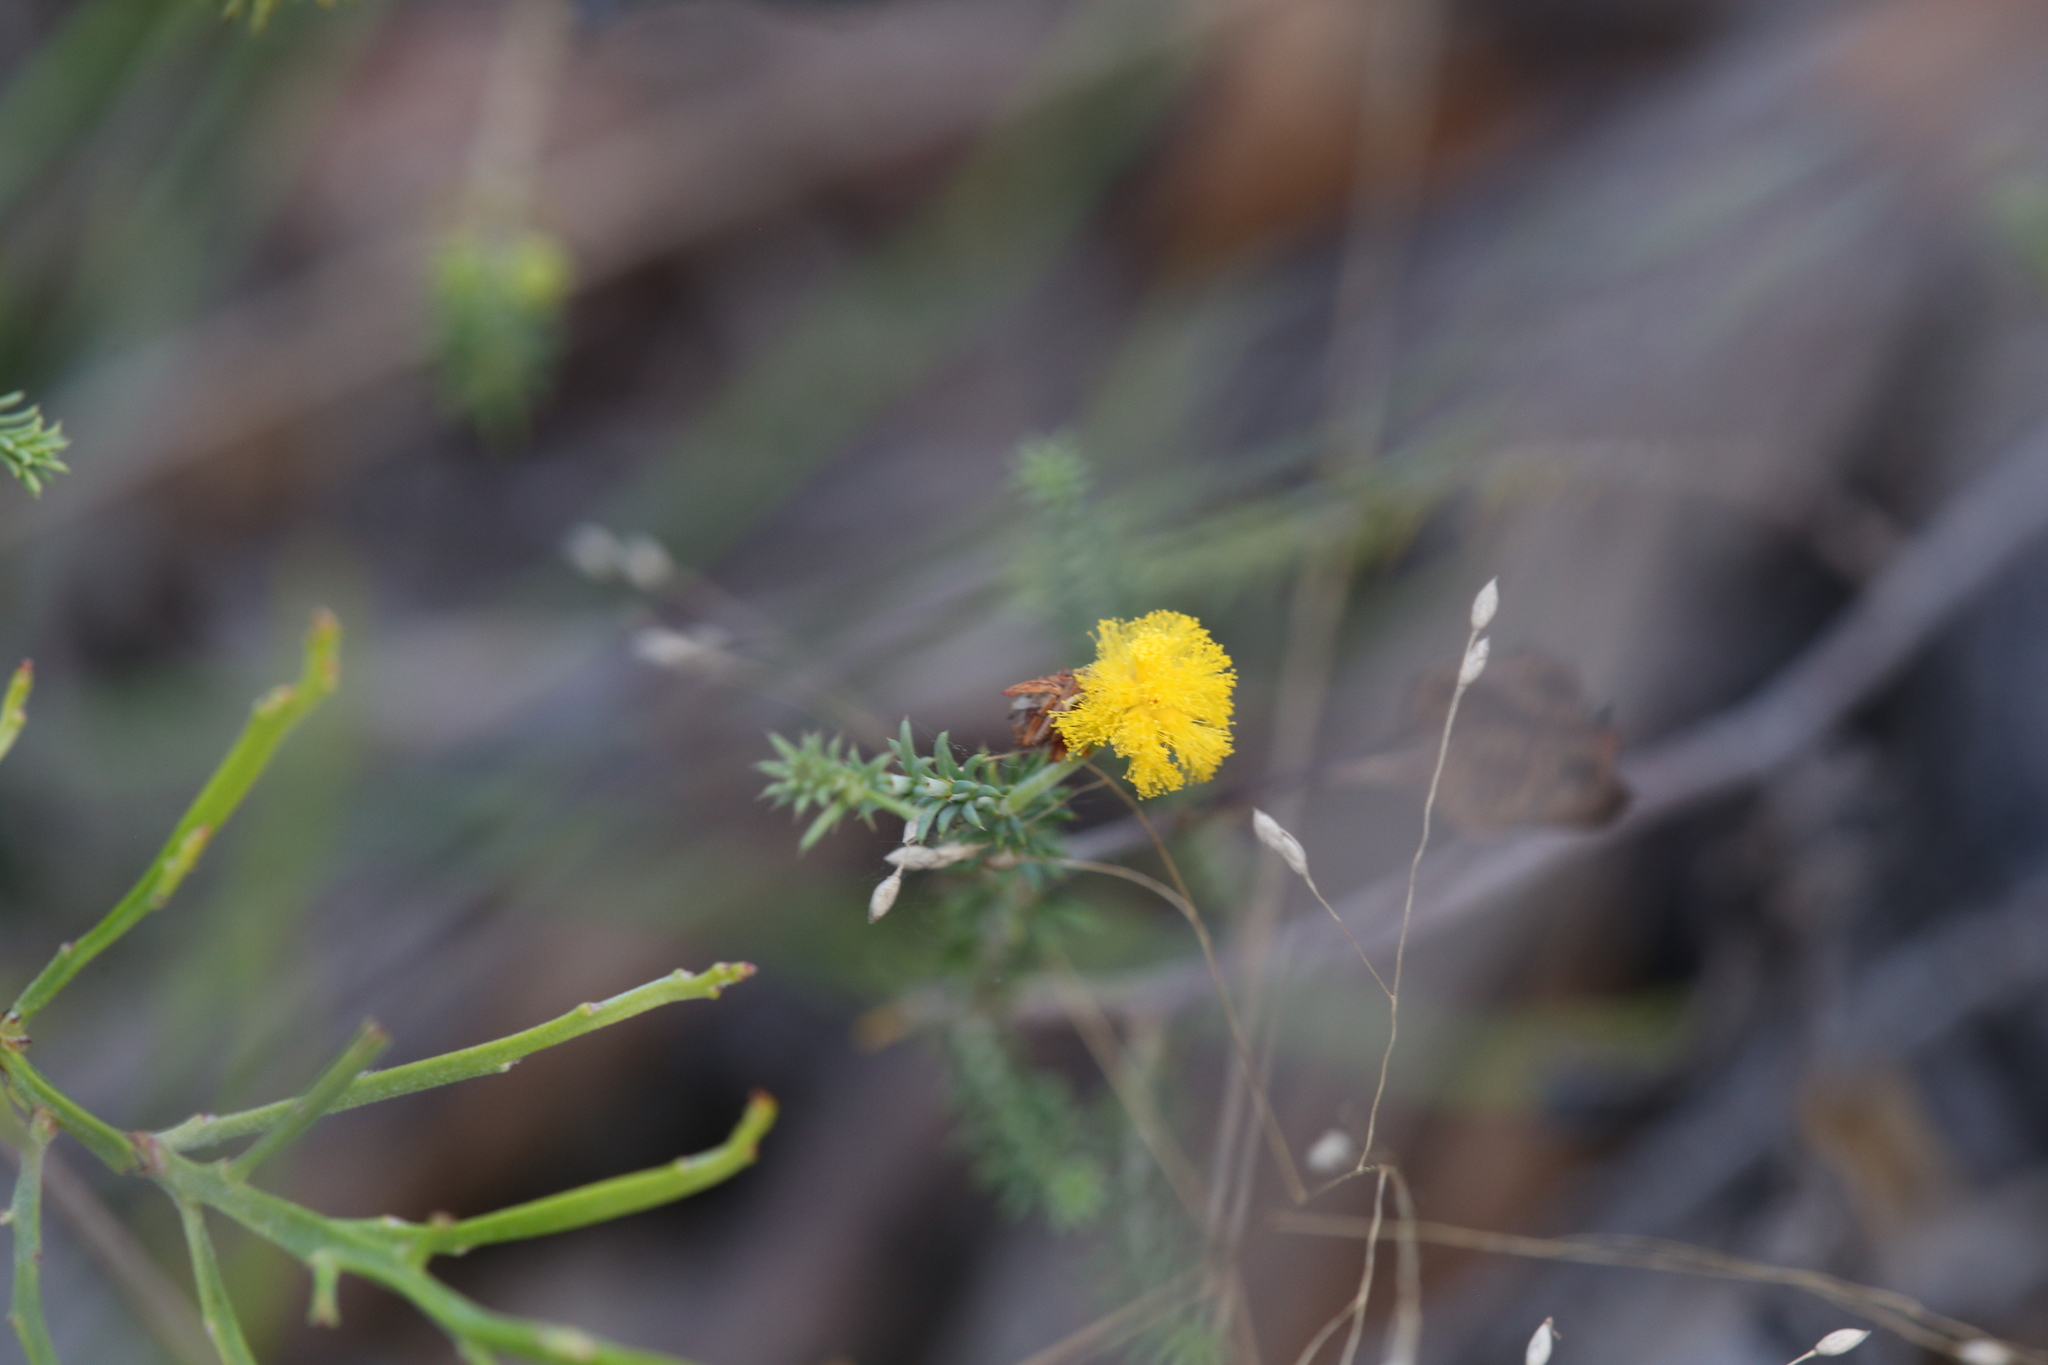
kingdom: Plantae
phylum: Tracheophyta
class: Magnoliopsida
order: Fabales
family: Fabaceae
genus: Acacia
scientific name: Acacia galioides
